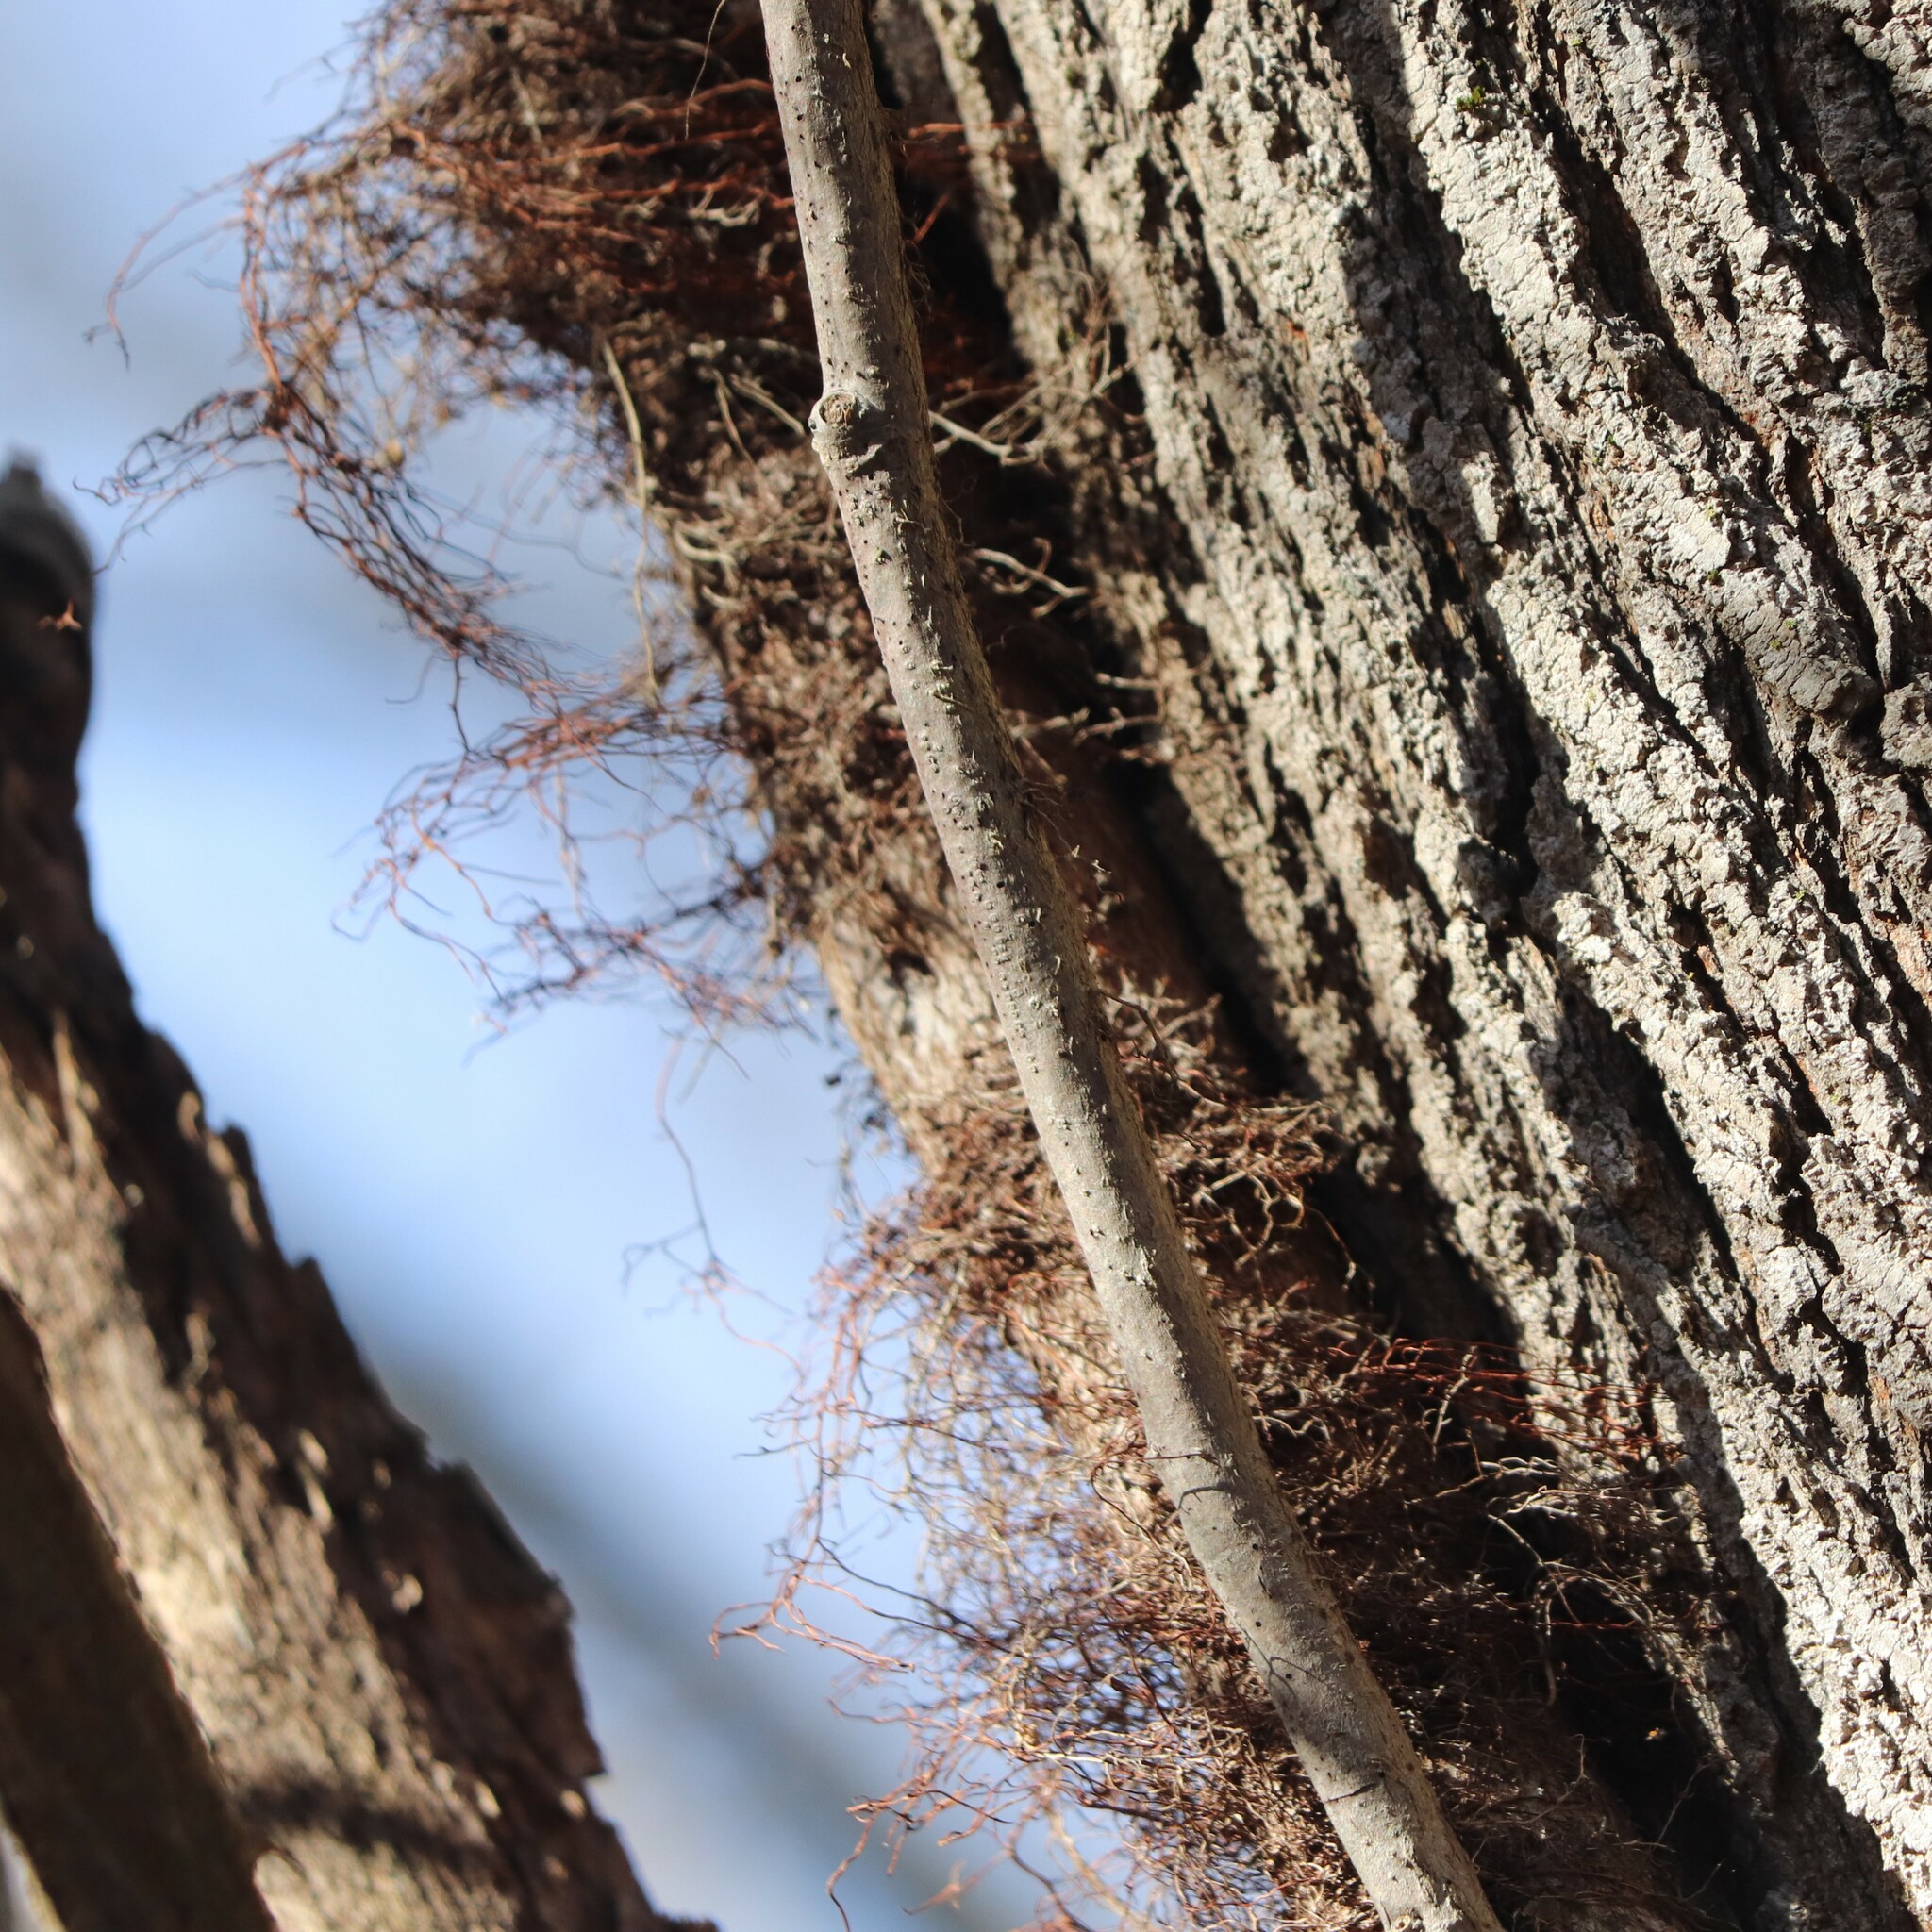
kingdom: Plantae
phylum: Tracheophyta
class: Magnoliopsida
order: Sapindales
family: Anacardiaceae
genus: Toxicodendron
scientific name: Toxicodendron radicans
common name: Poison ivy
